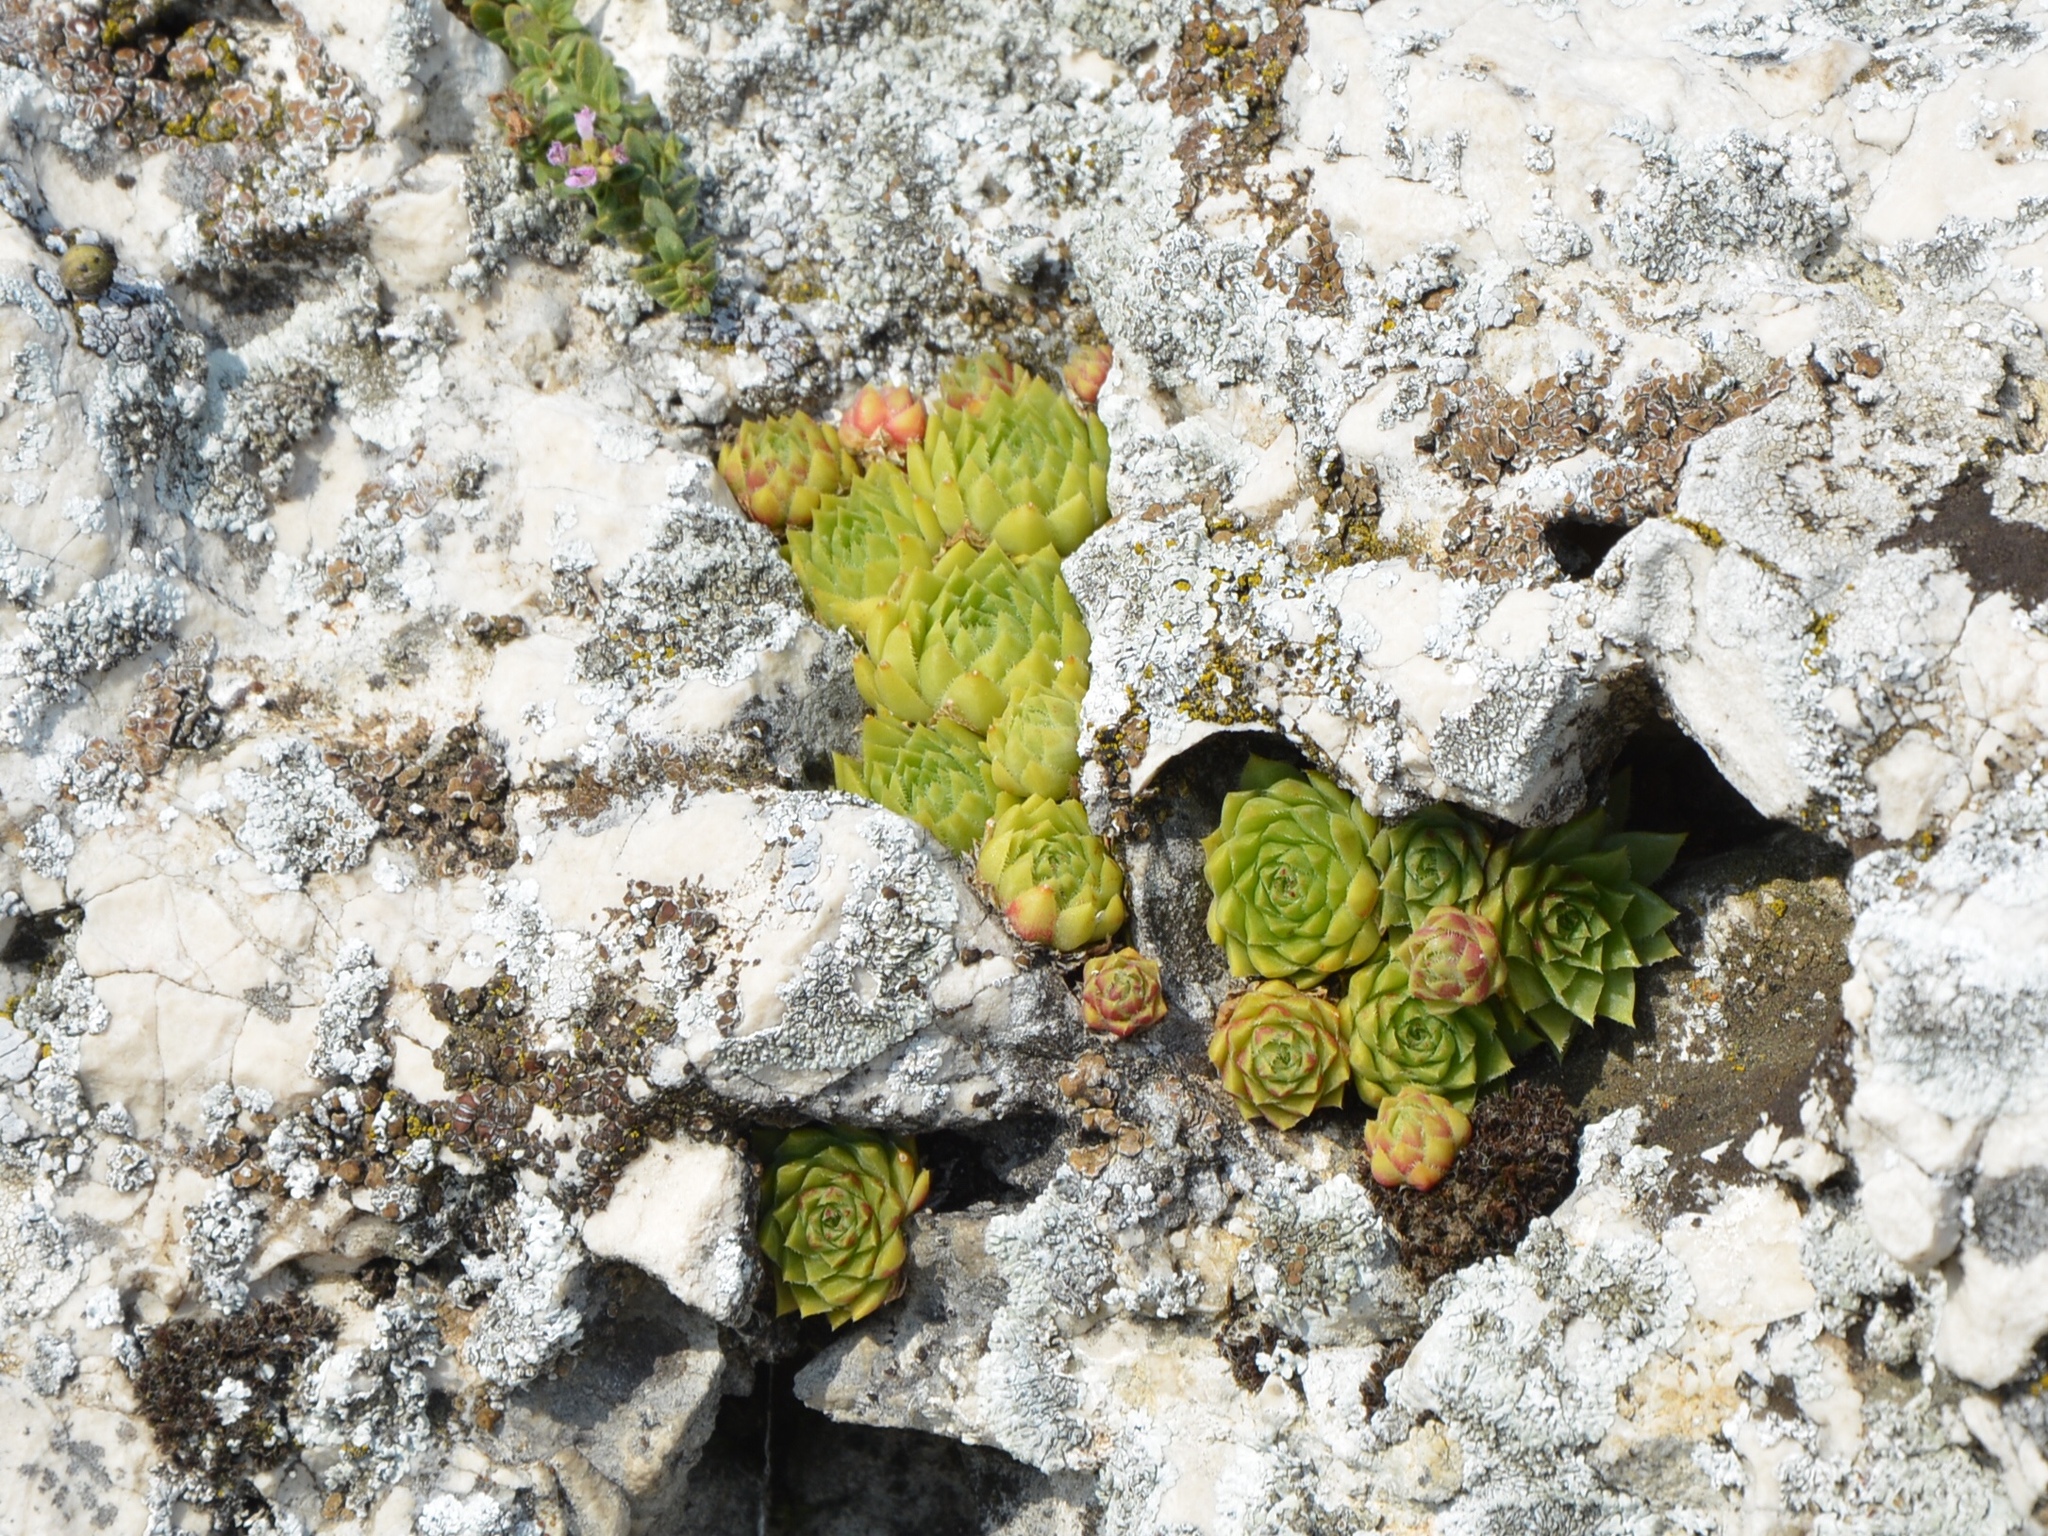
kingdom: Plantae
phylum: Tracheophyta
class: Magnoliopsida
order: Saxifragales
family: Crassulaceae
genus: Sempervivum
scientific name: Sempervivum globiferum
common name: Rolling hen-and-chicks
